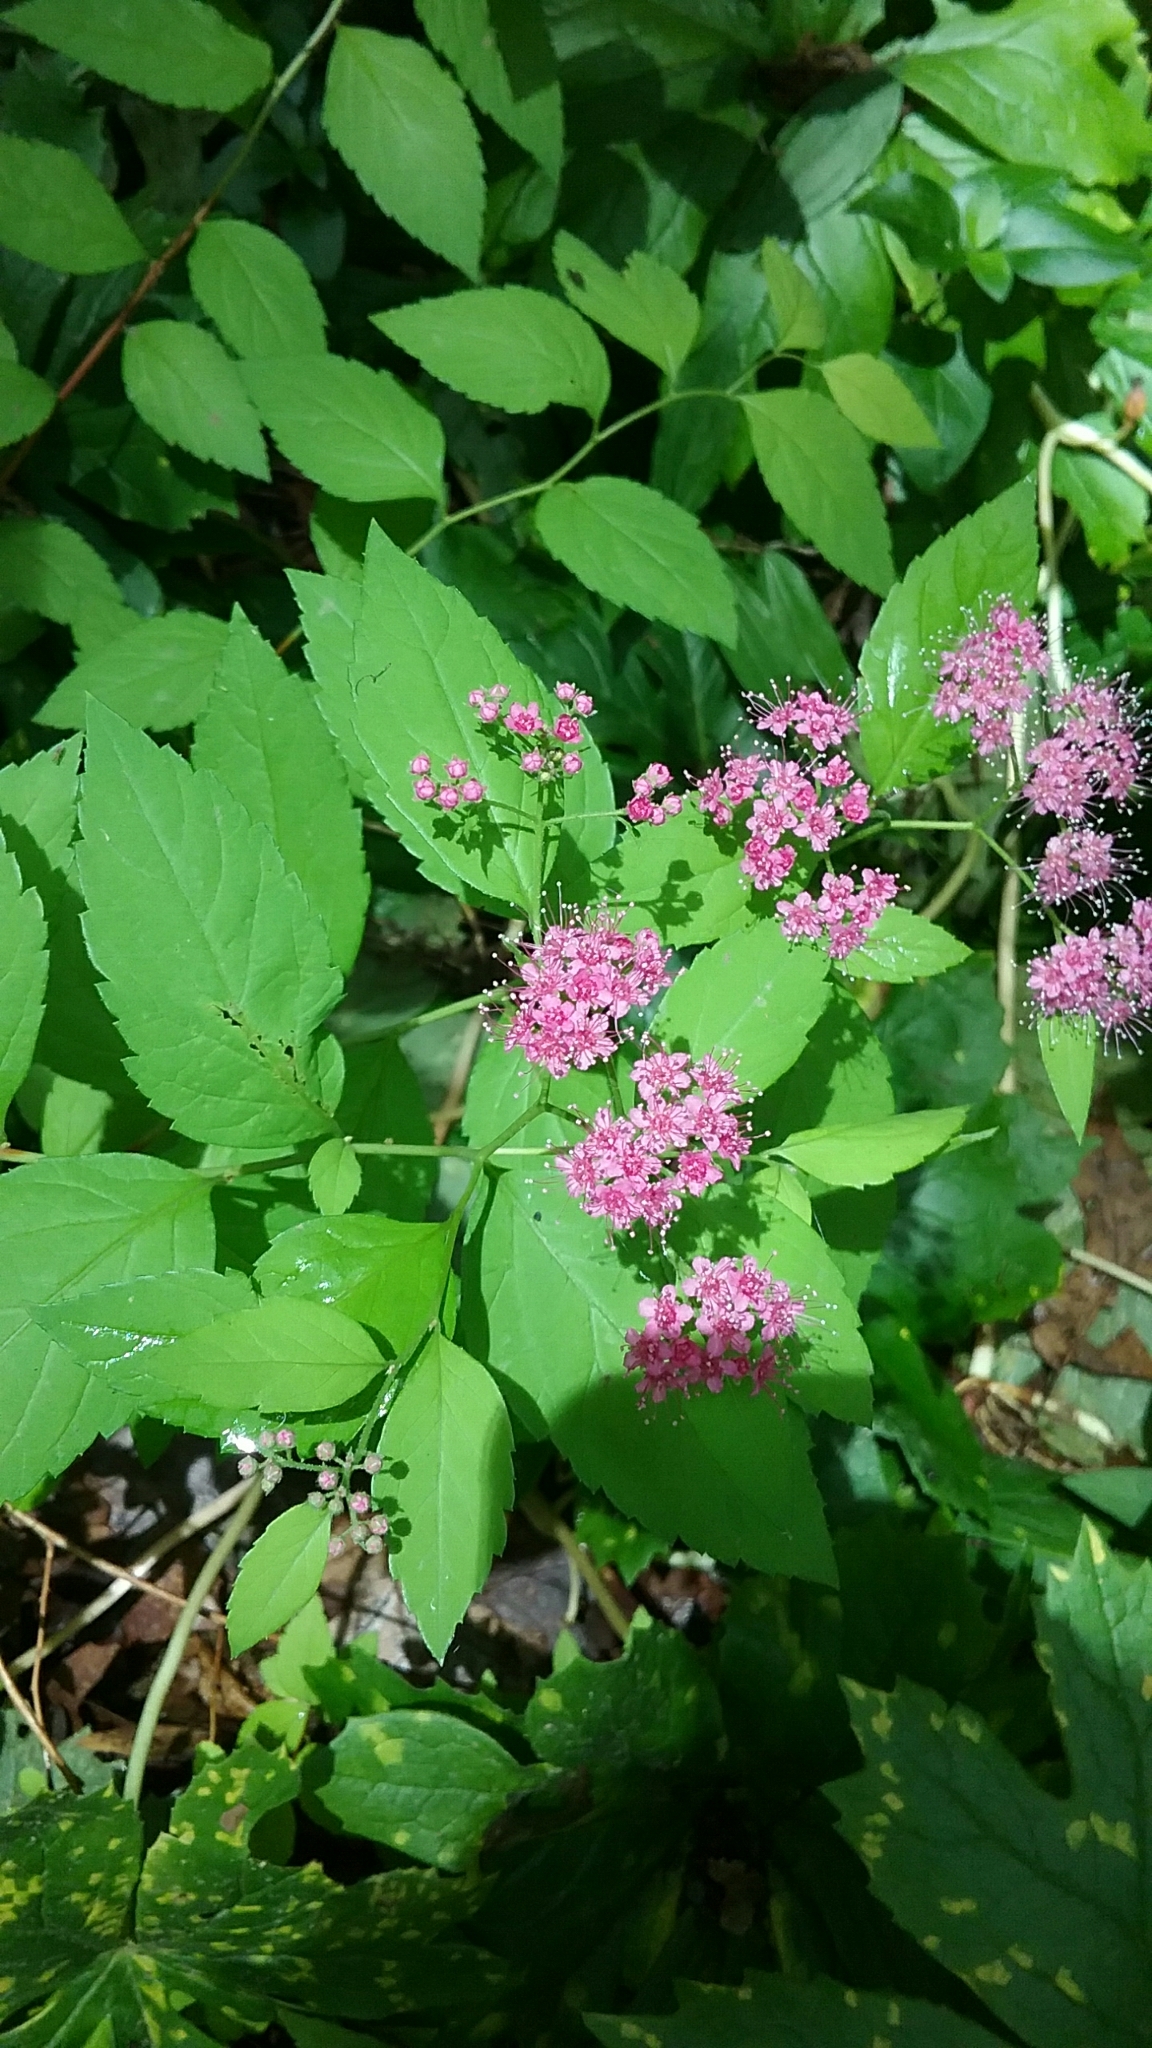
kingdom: Plantae
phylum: Tracheophyta
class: Magnoliopsida
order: Rosales
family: Rosaceae
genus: Spiraea
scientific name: Spiraea japonica
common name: Japanese spiraea
